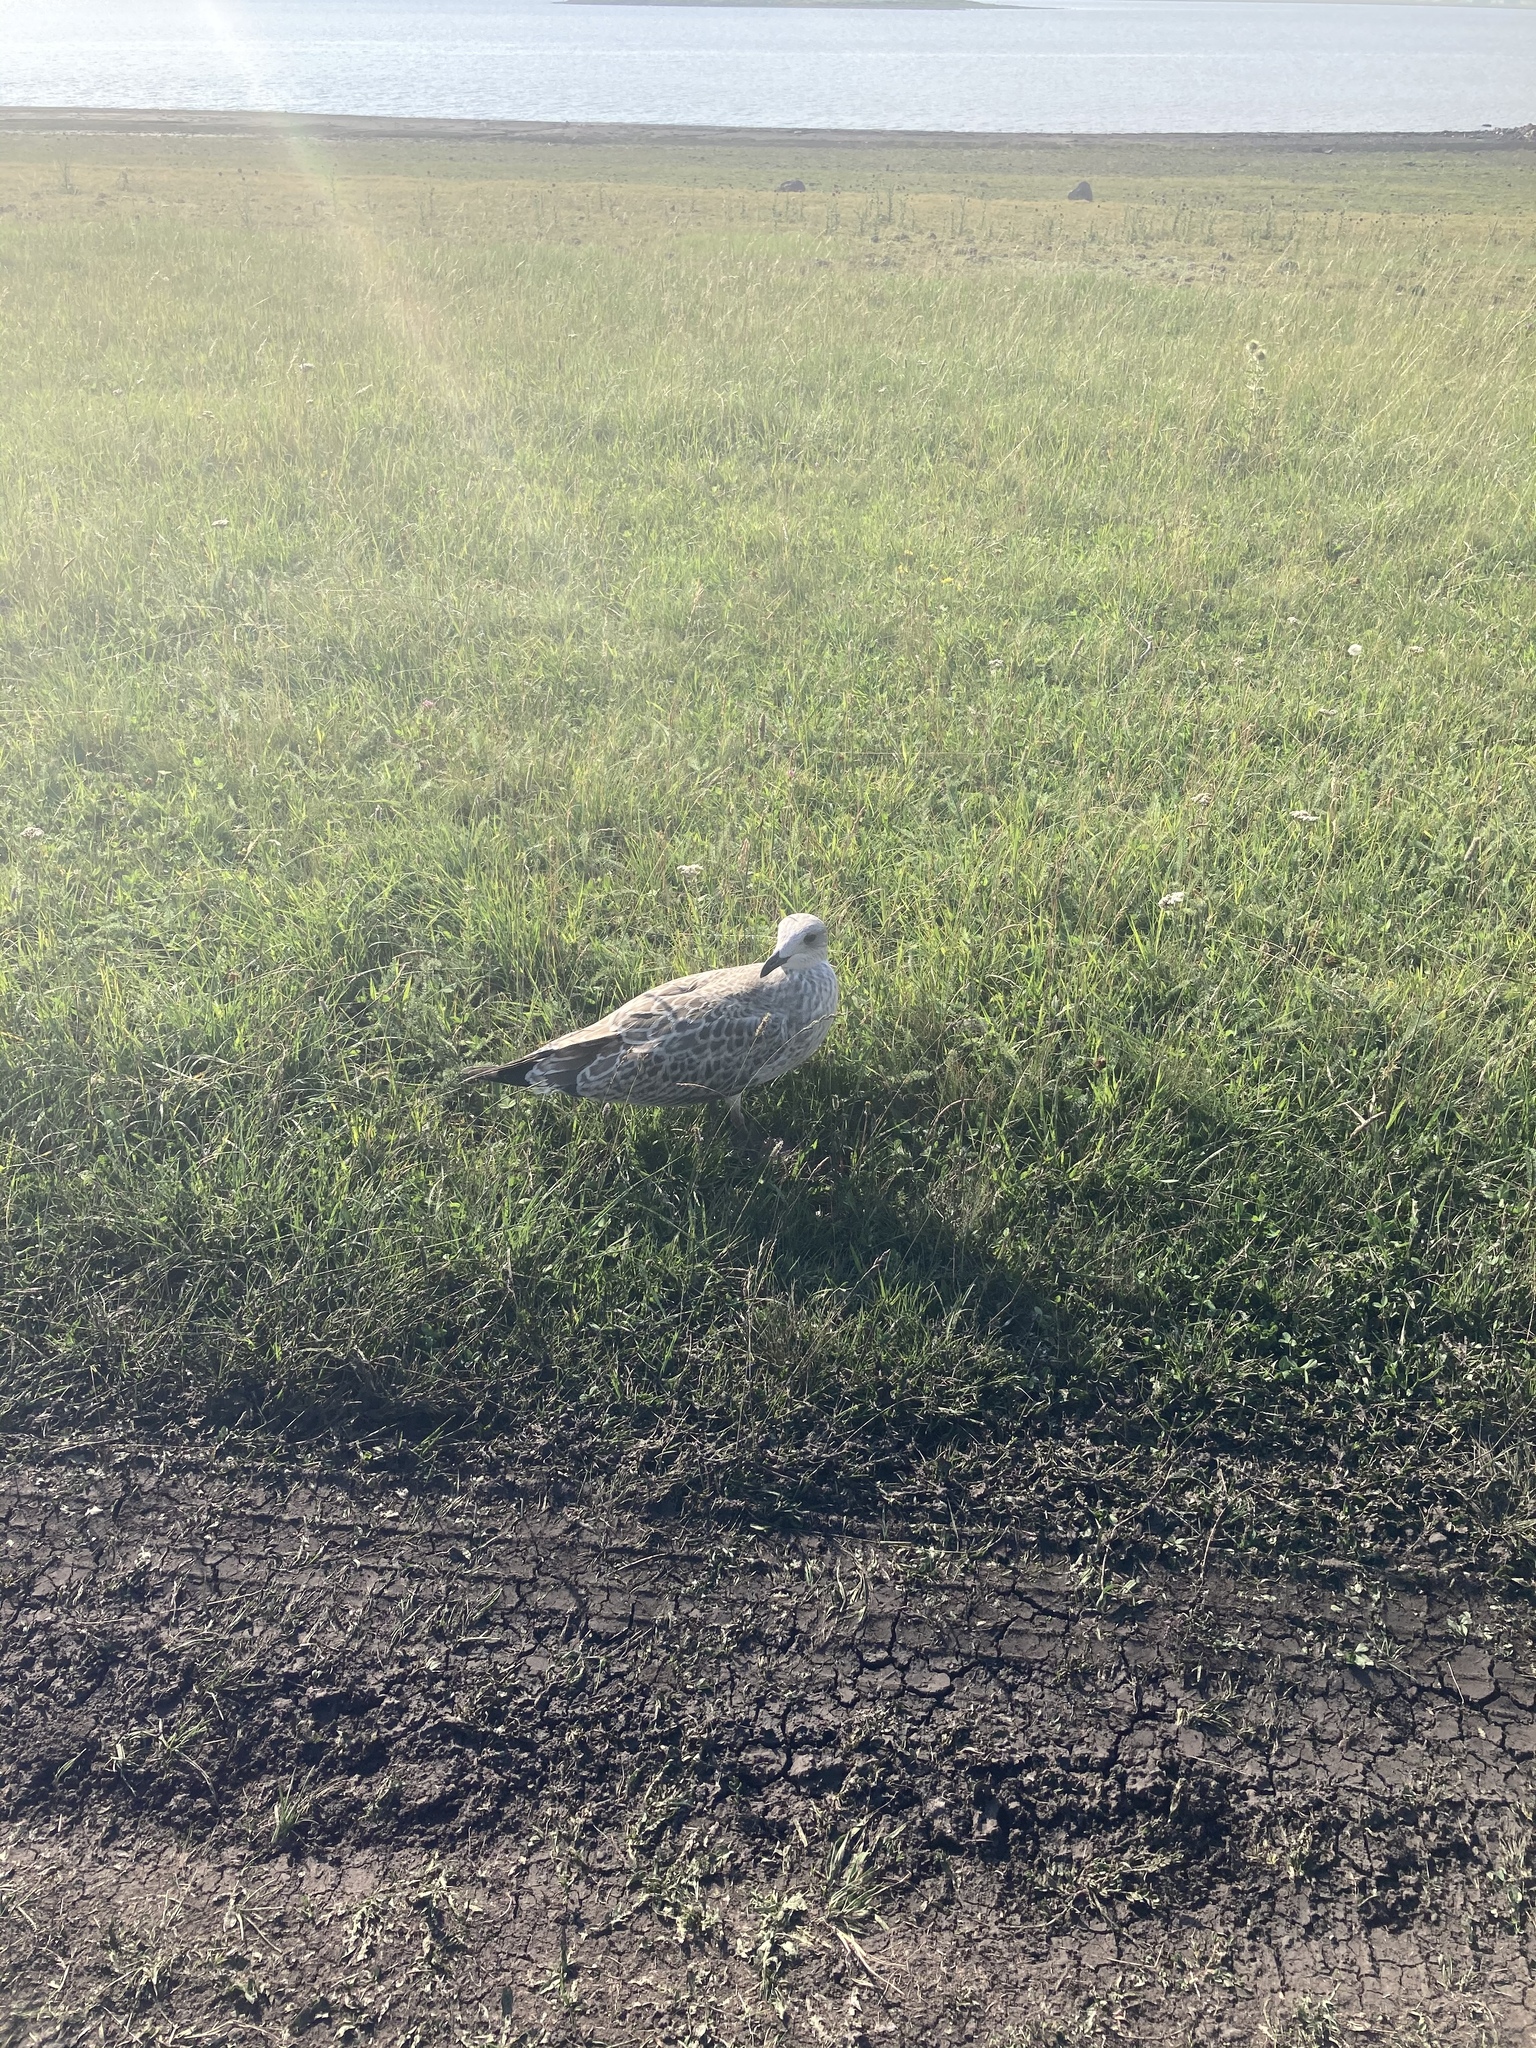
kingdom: Animalia
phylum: Chordata
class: Aves
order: Charadriiformes
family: Laridae
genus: Larus
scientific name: Larus armenicus
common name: Armenian gull
